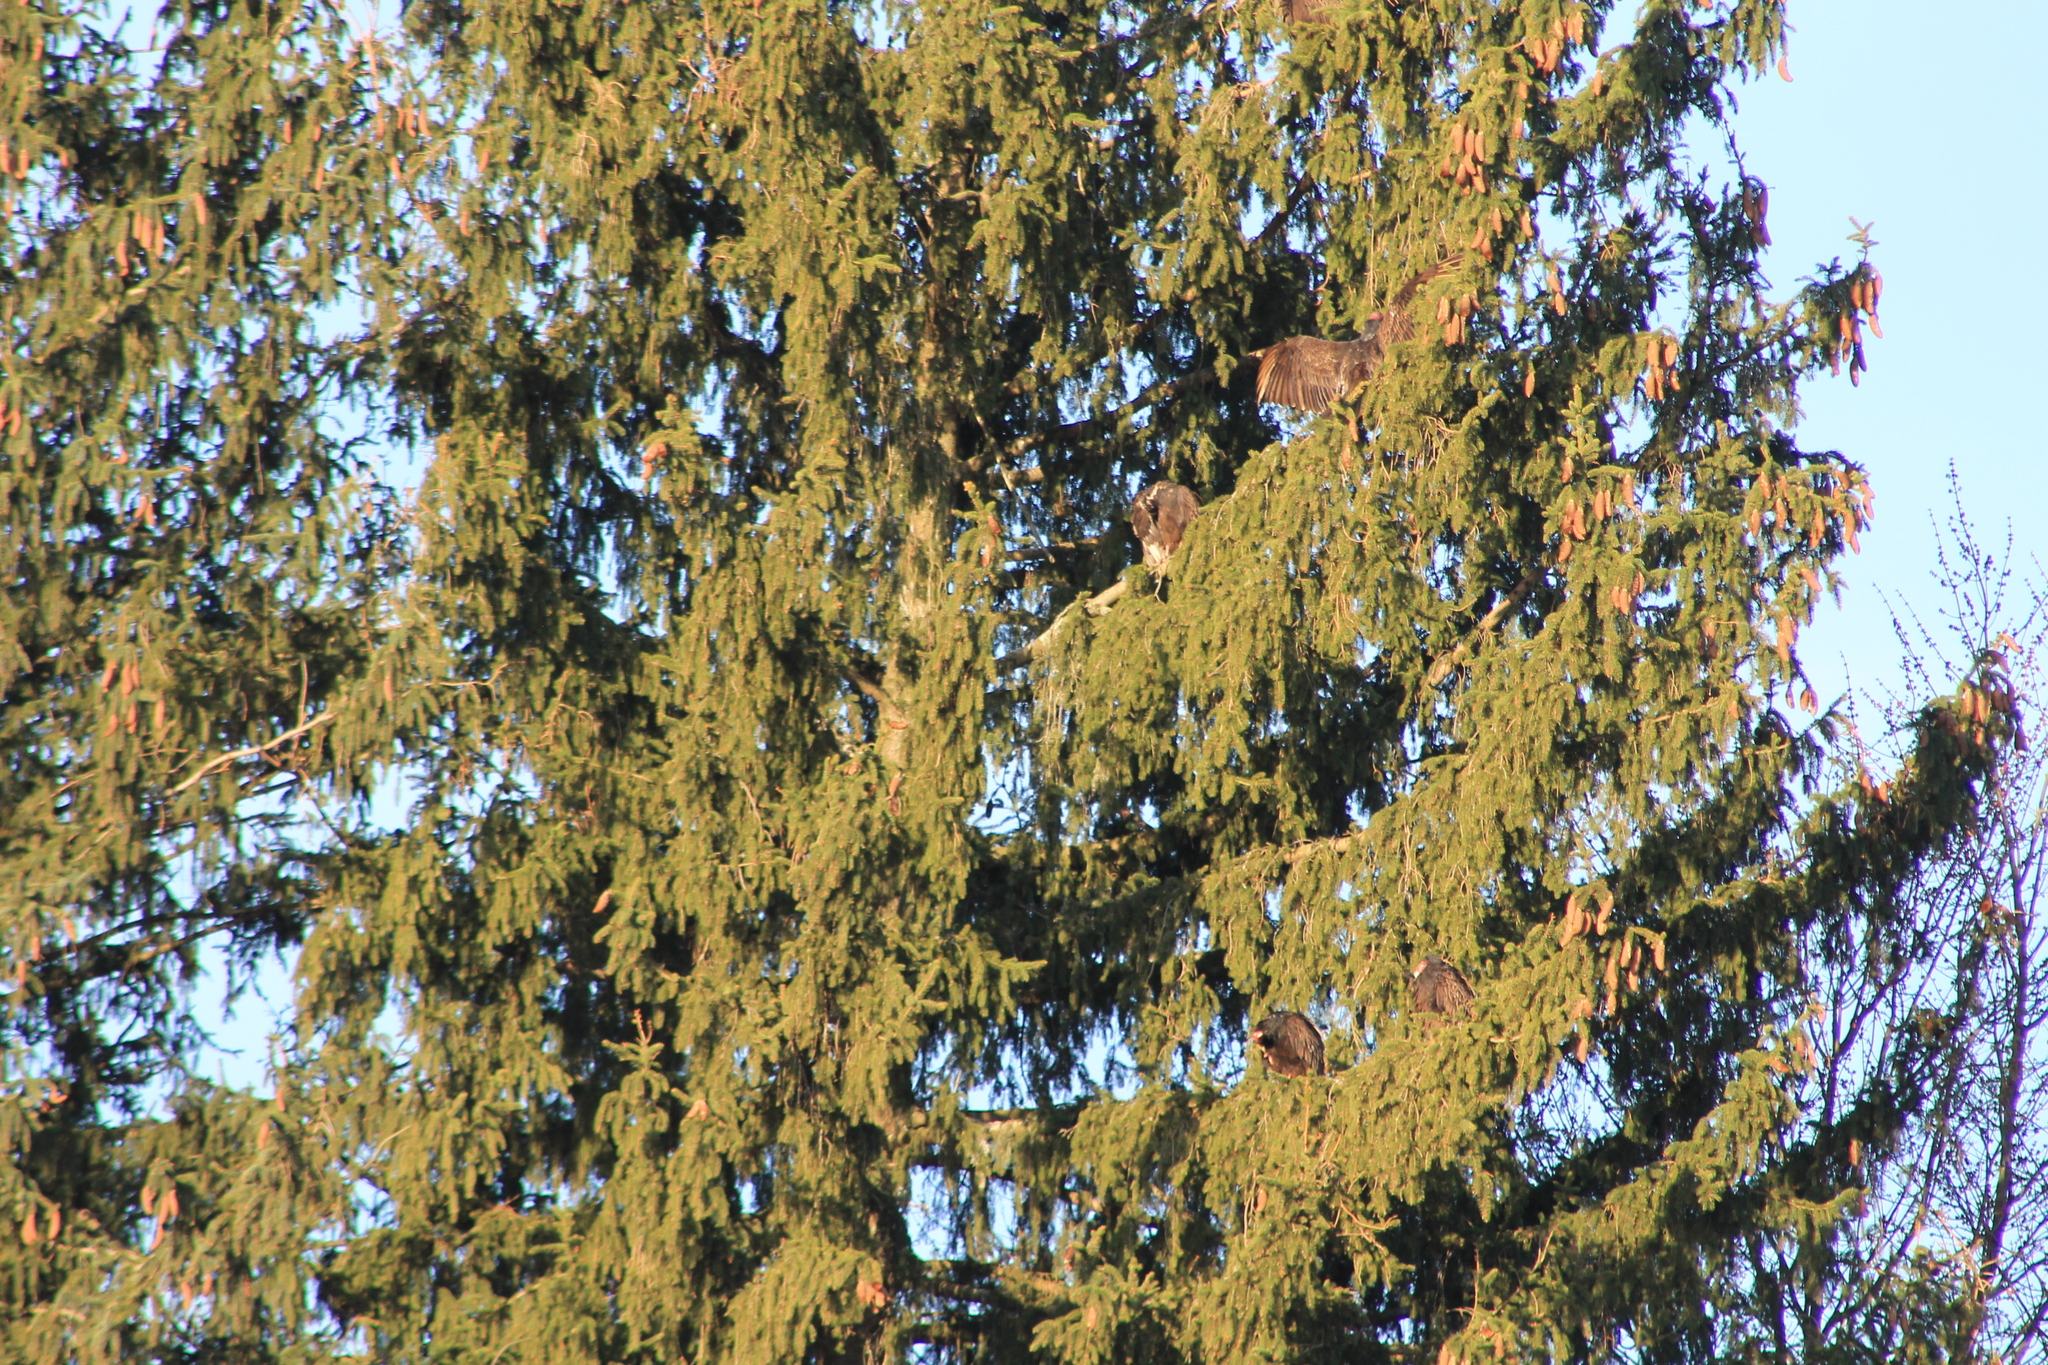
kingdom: Animalia
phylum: Chordata
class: Aves
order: Accipitriformes
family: Cathartidae
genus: Cathartes
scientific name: Cathartes aura
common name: Turkey vulture
